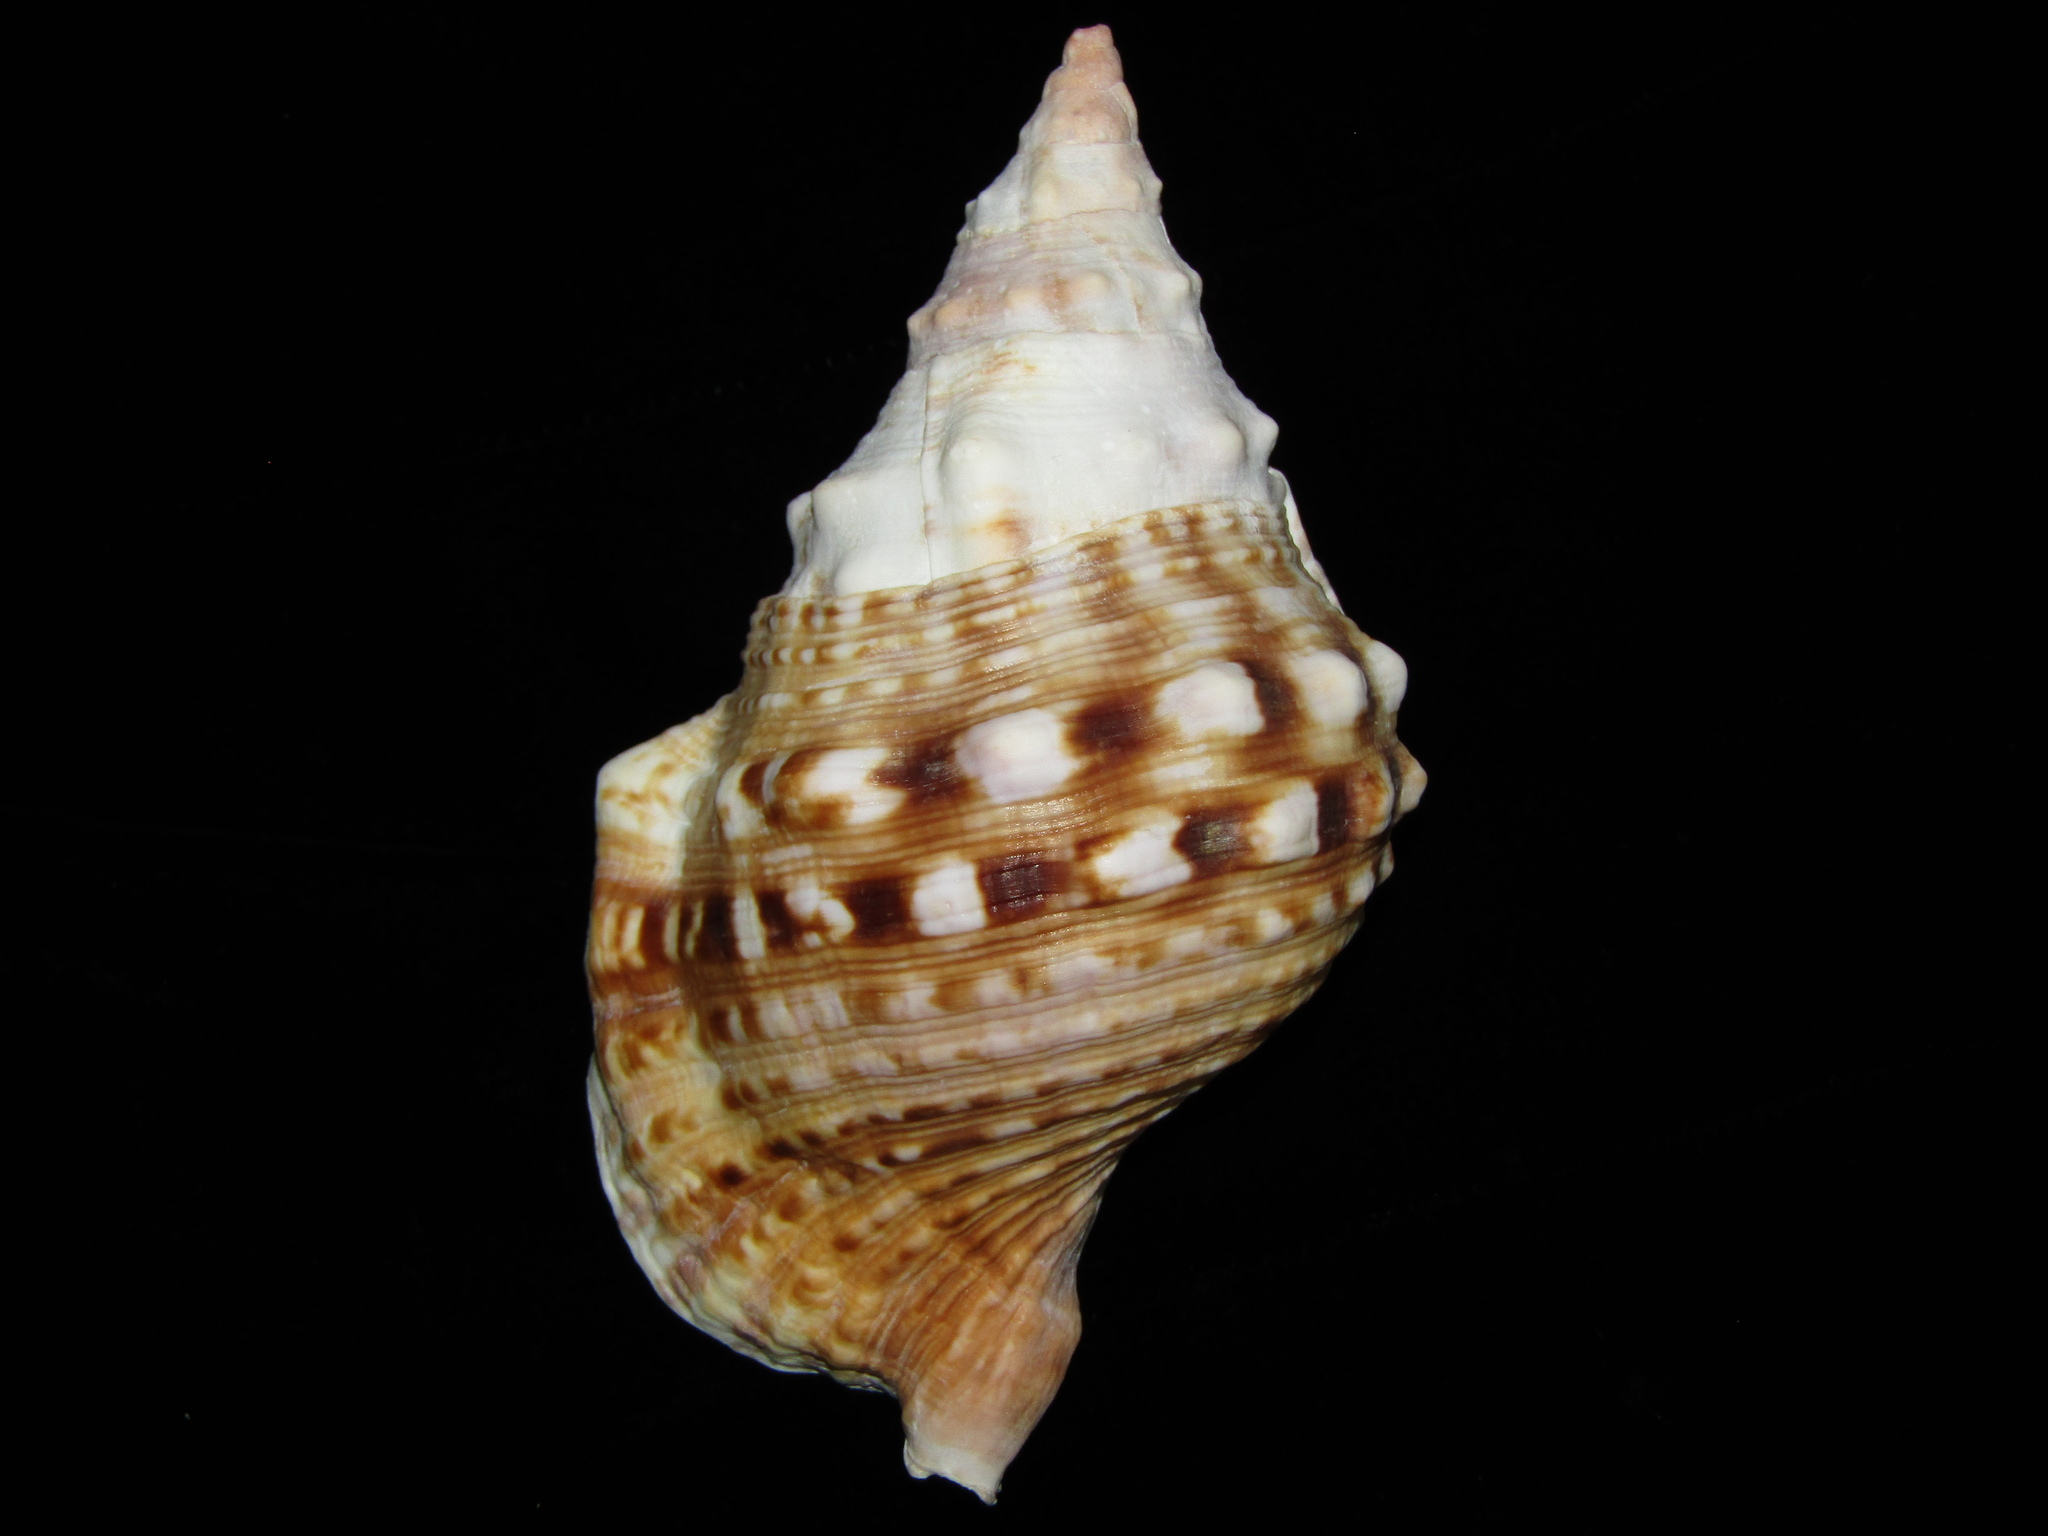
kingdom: Animalia
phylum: Mollusca
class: Gastropoda
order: Littorinimorpha
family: Charoniidae
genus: Charonia
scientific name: Charonia lampas
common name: Knobbed triton
